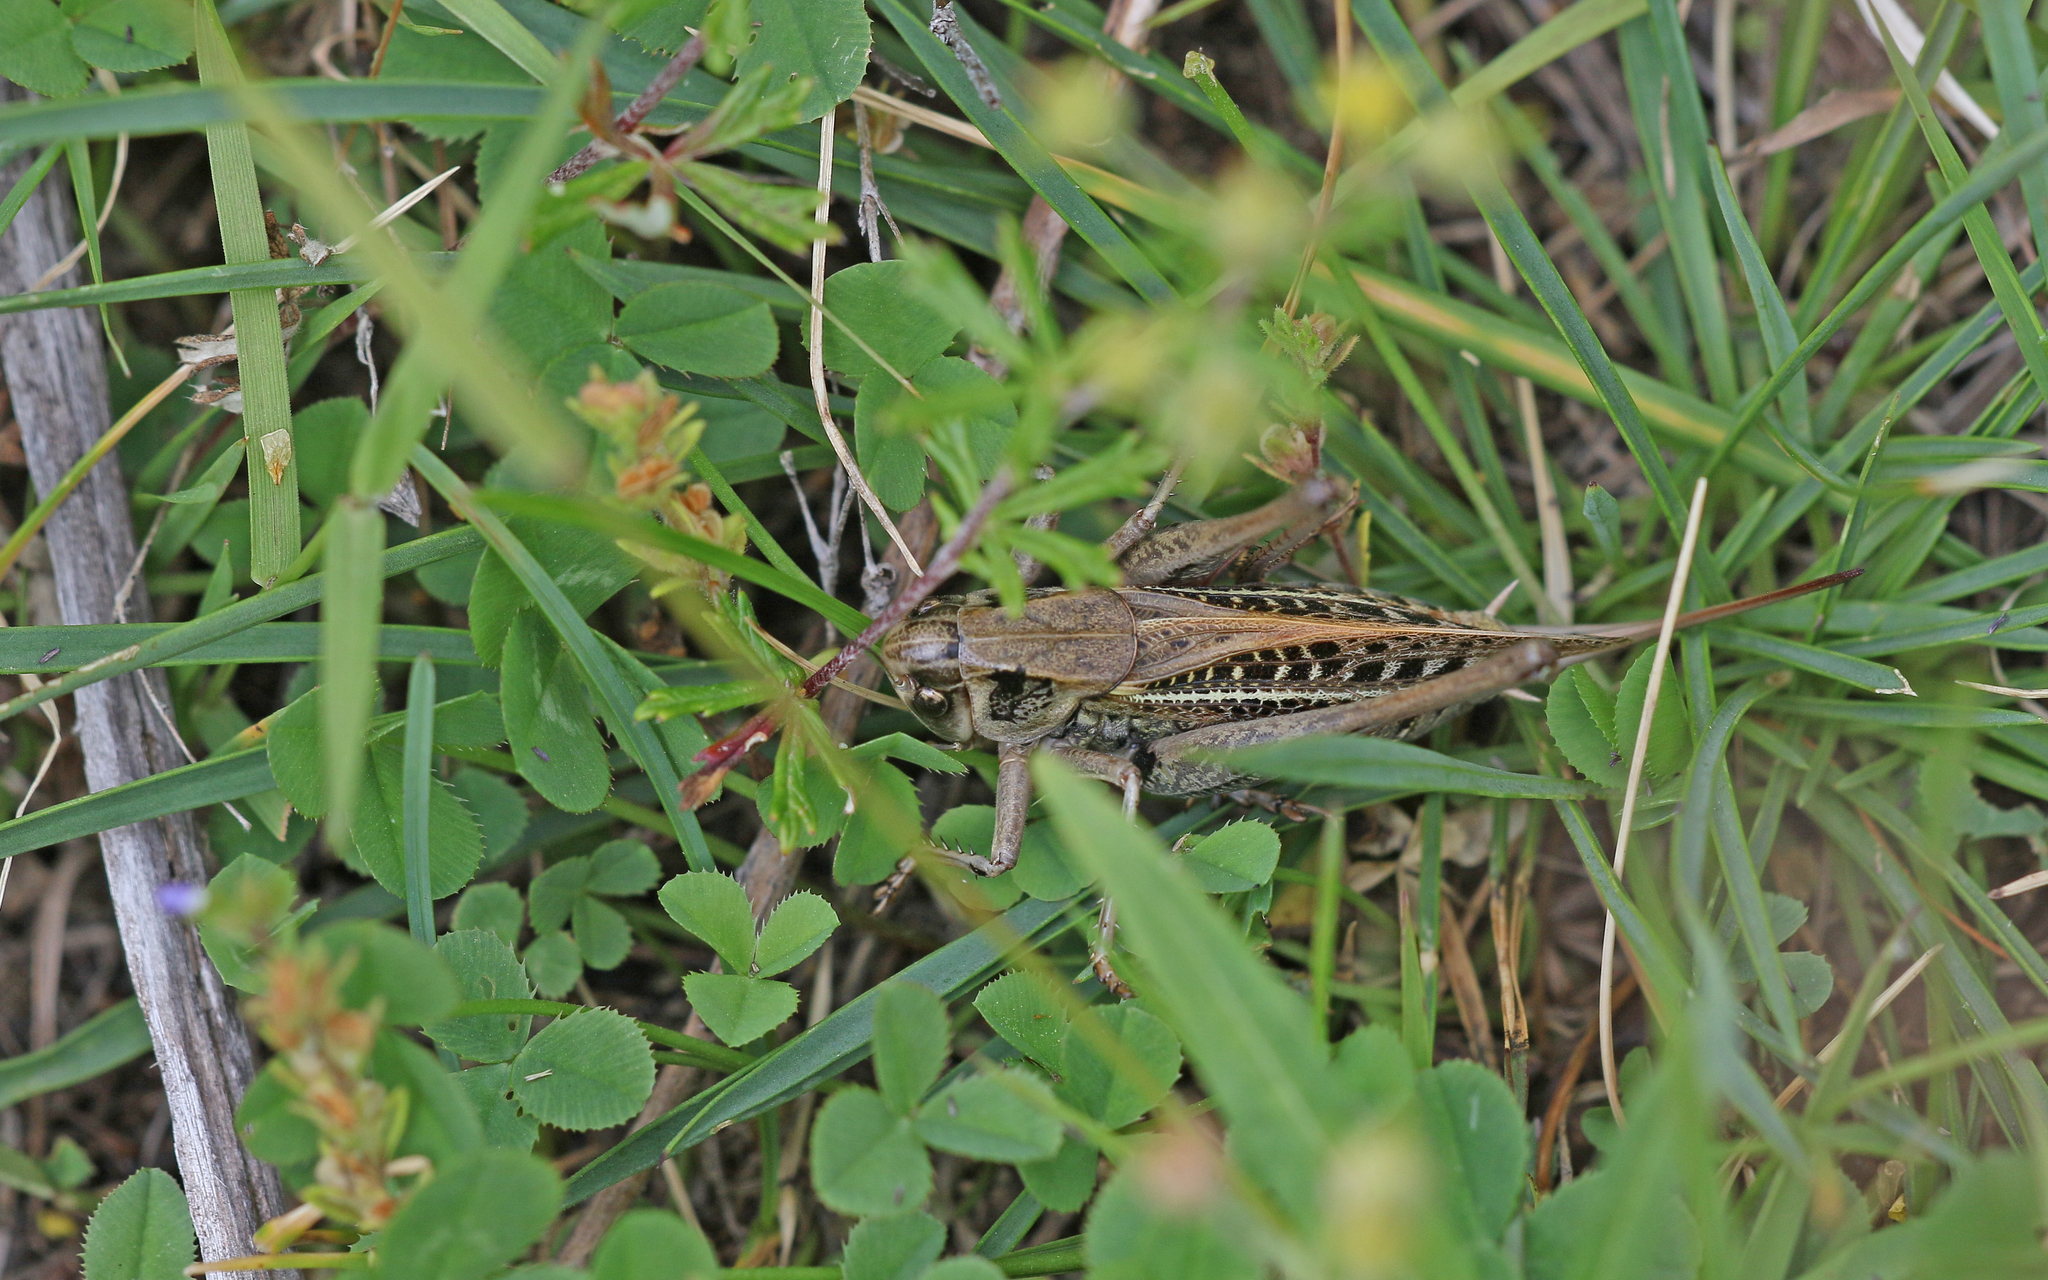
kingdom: Animalia
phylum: Arthropoda
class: Insecta
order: Orthoptera
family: Tettigoniidae
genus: Decticus
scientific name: Decticus verrucivorus
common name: Wart-biter
